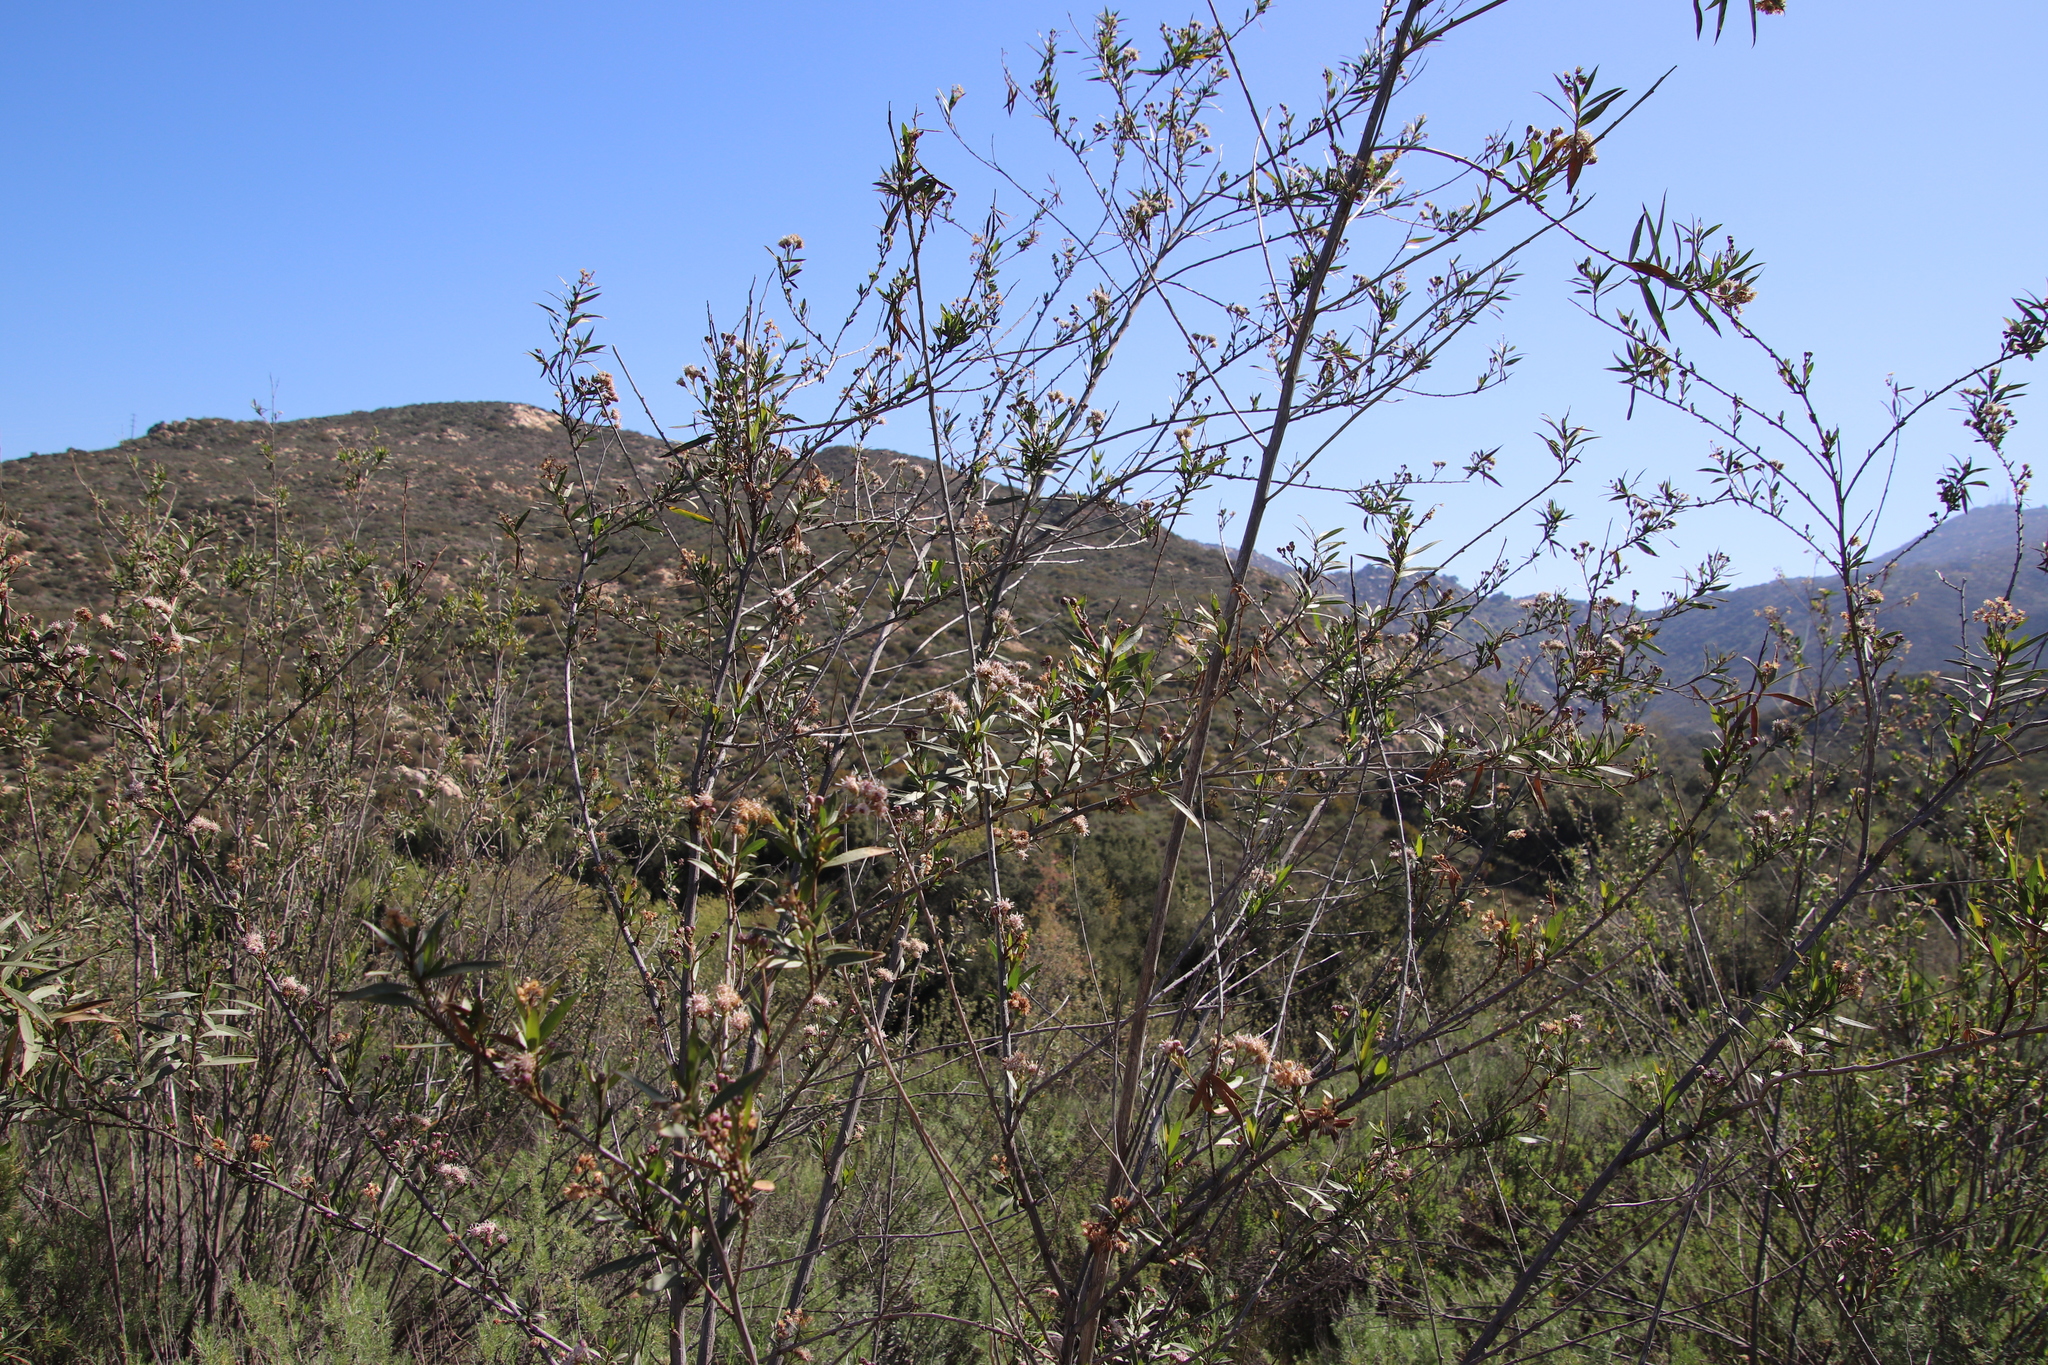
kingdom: Plantae
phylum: Tracheophyta
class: Magnoliopsida
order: Asterales
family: Asteraceae
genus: Baccharis
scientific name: Baccharis salicifolia
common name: Sticky baccharis
